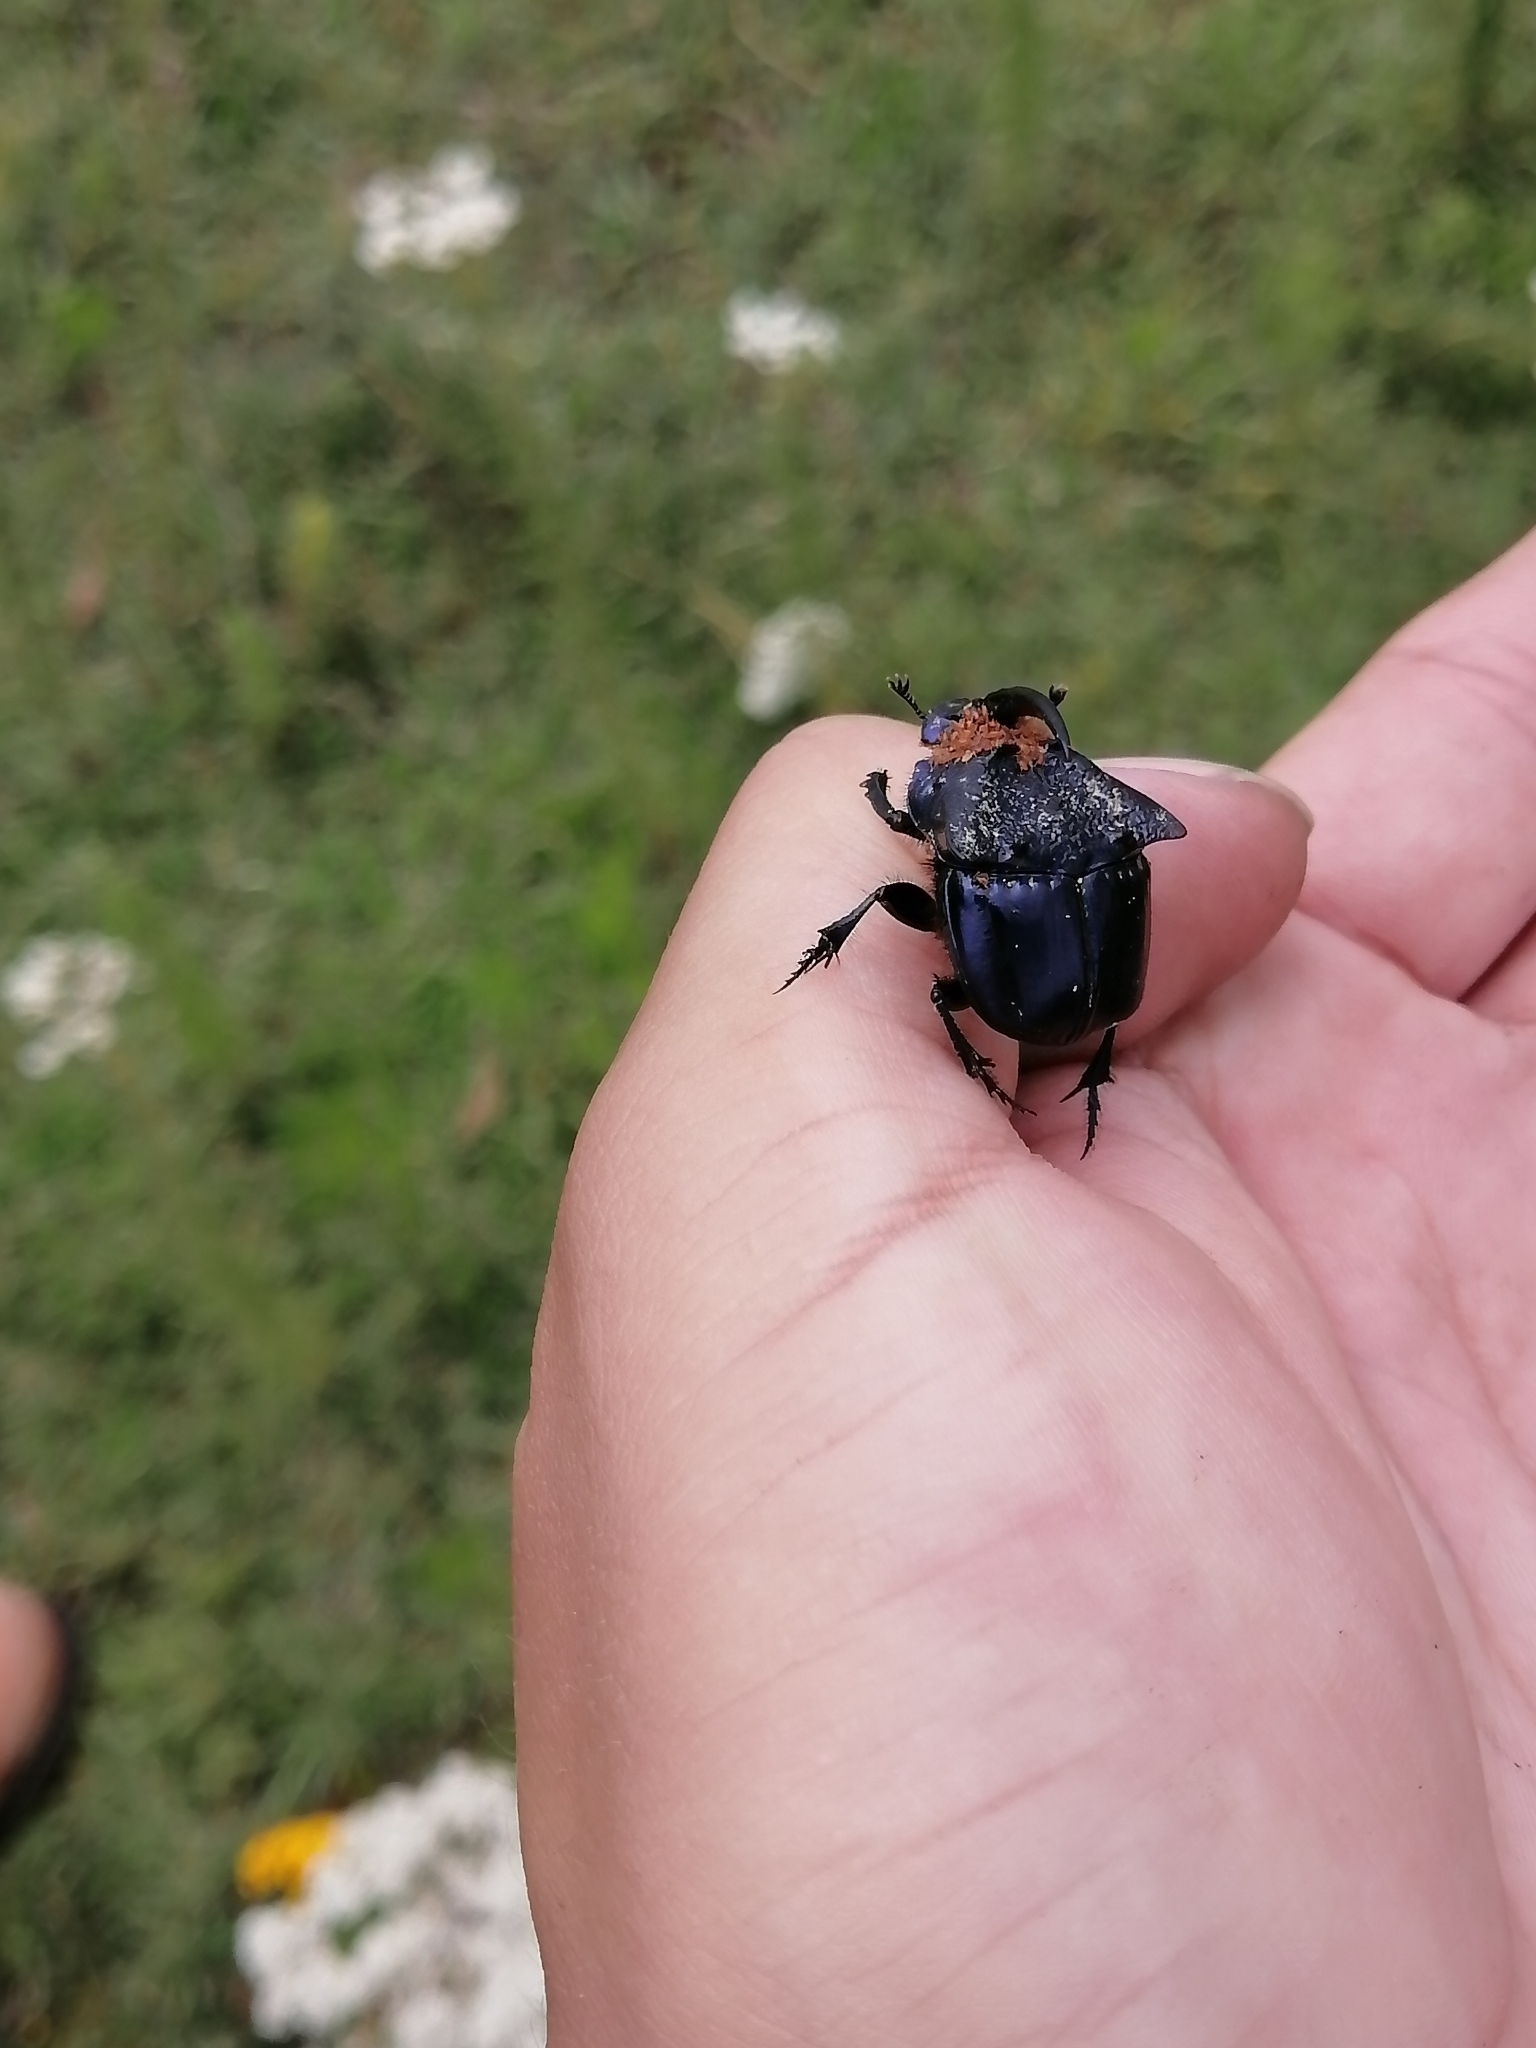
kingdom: Animalia
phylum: Arthropoda
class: Insecta
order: Coleoptera
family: Scarabaeidae
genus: Phanaeus
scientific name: Phanaeus quadridens
